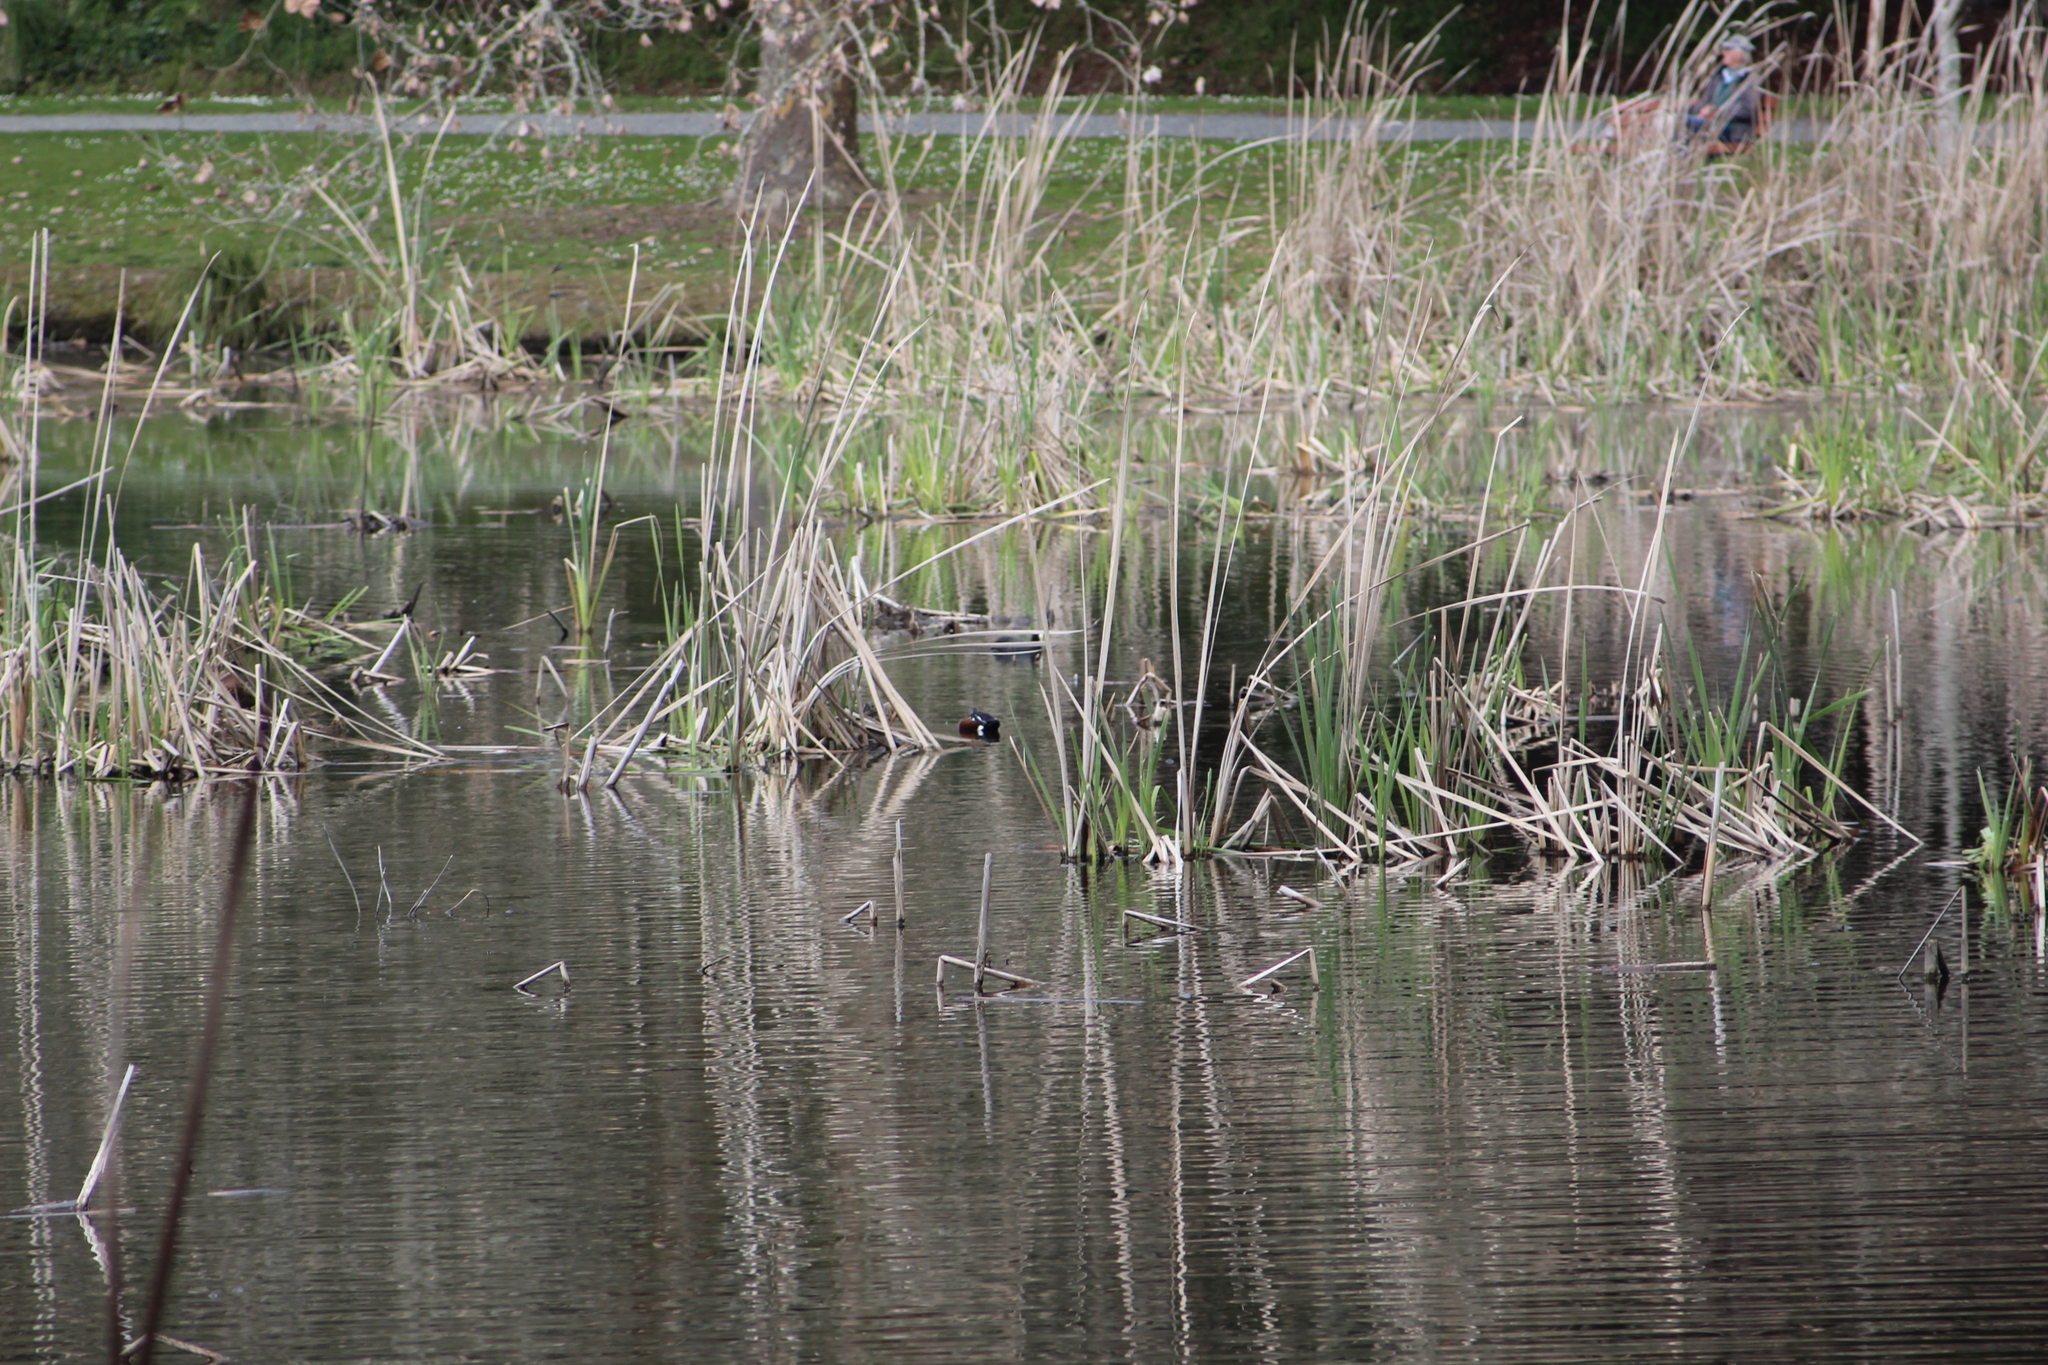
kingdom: Animalia
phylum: Chordata
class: Aves
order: Anseriformes
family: Anatidae
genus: Spatula
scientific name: Spatula rhynchotis
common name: Australian shoveler
